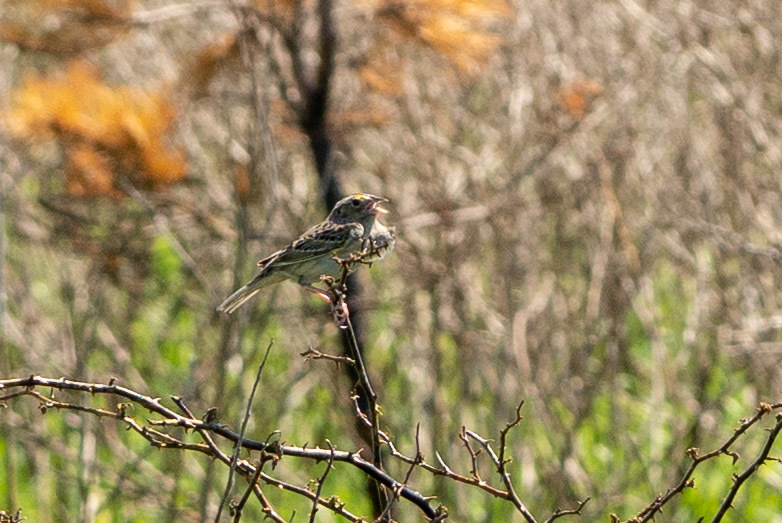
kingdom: Animalia
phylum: Chordata
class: Aves
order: Passeriformes
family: Passerellidae
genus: Ammodramus
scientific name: Ammodramus savannarum
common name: Grasshopper sparrow
